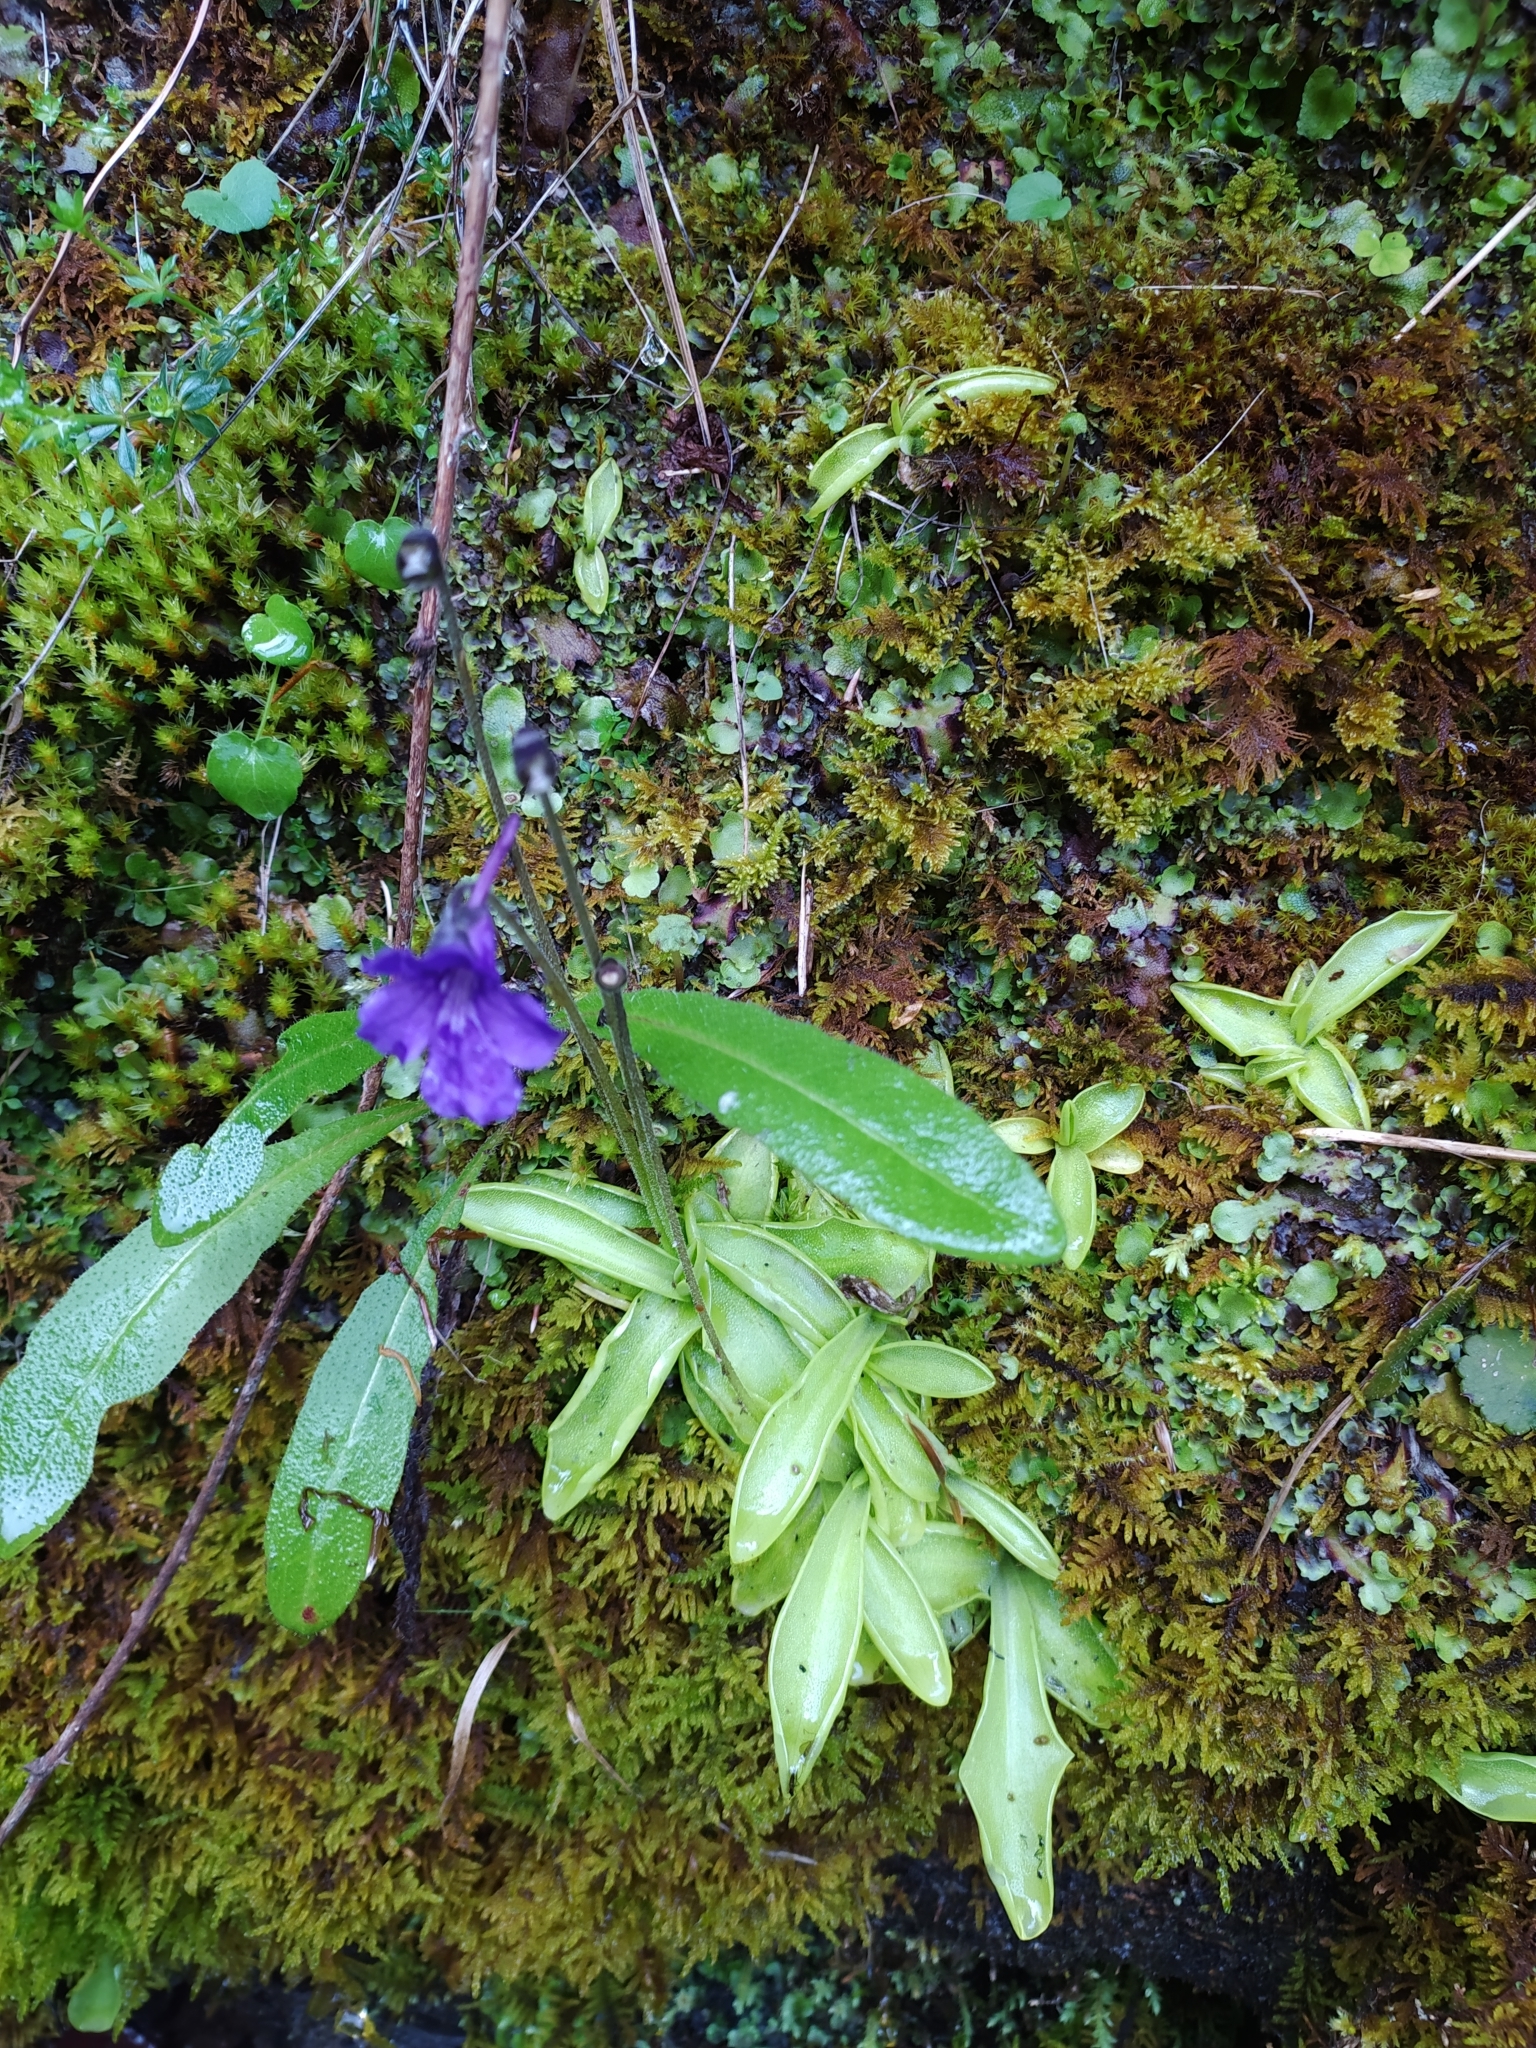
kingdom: Plantae
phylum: Tracheophyta
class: Magnoliopsida
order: Lamiales
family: Lentibulariaceae
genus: Pinguicula
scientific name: Pinguicula grandiflora
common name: Large-flowered butterwort
